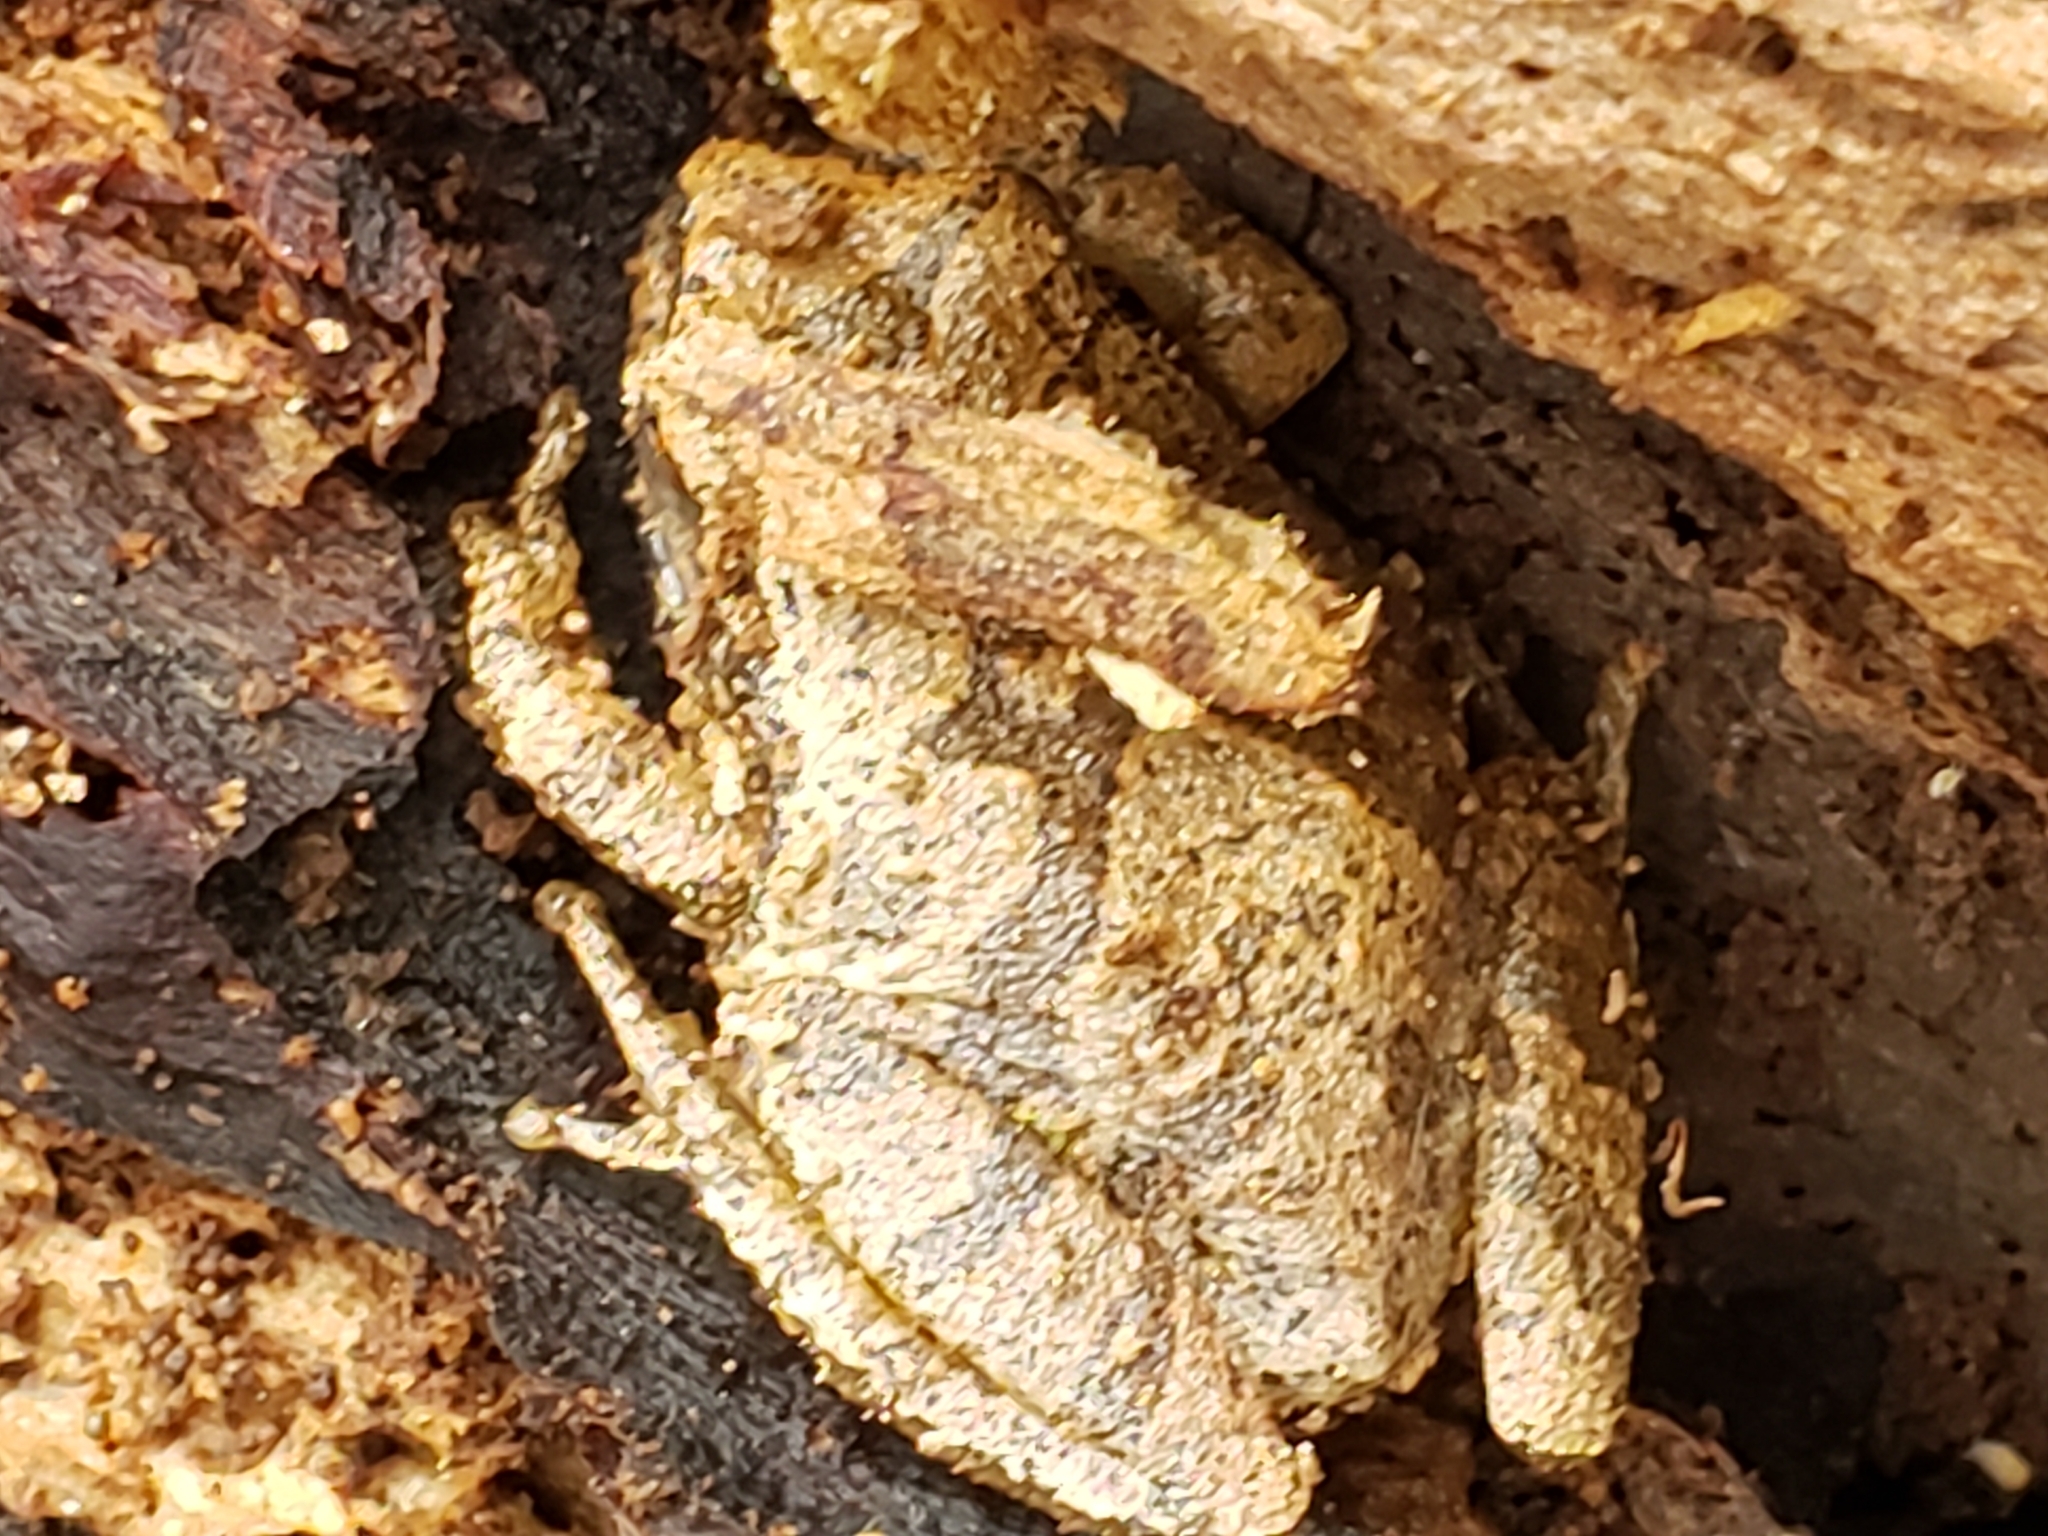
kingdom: Animalia
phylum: Chordata
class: Amphibia
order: Anura
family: Hylidae
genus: Pseudacris
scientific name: Pseudacris crucifer
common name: Spring peeper
